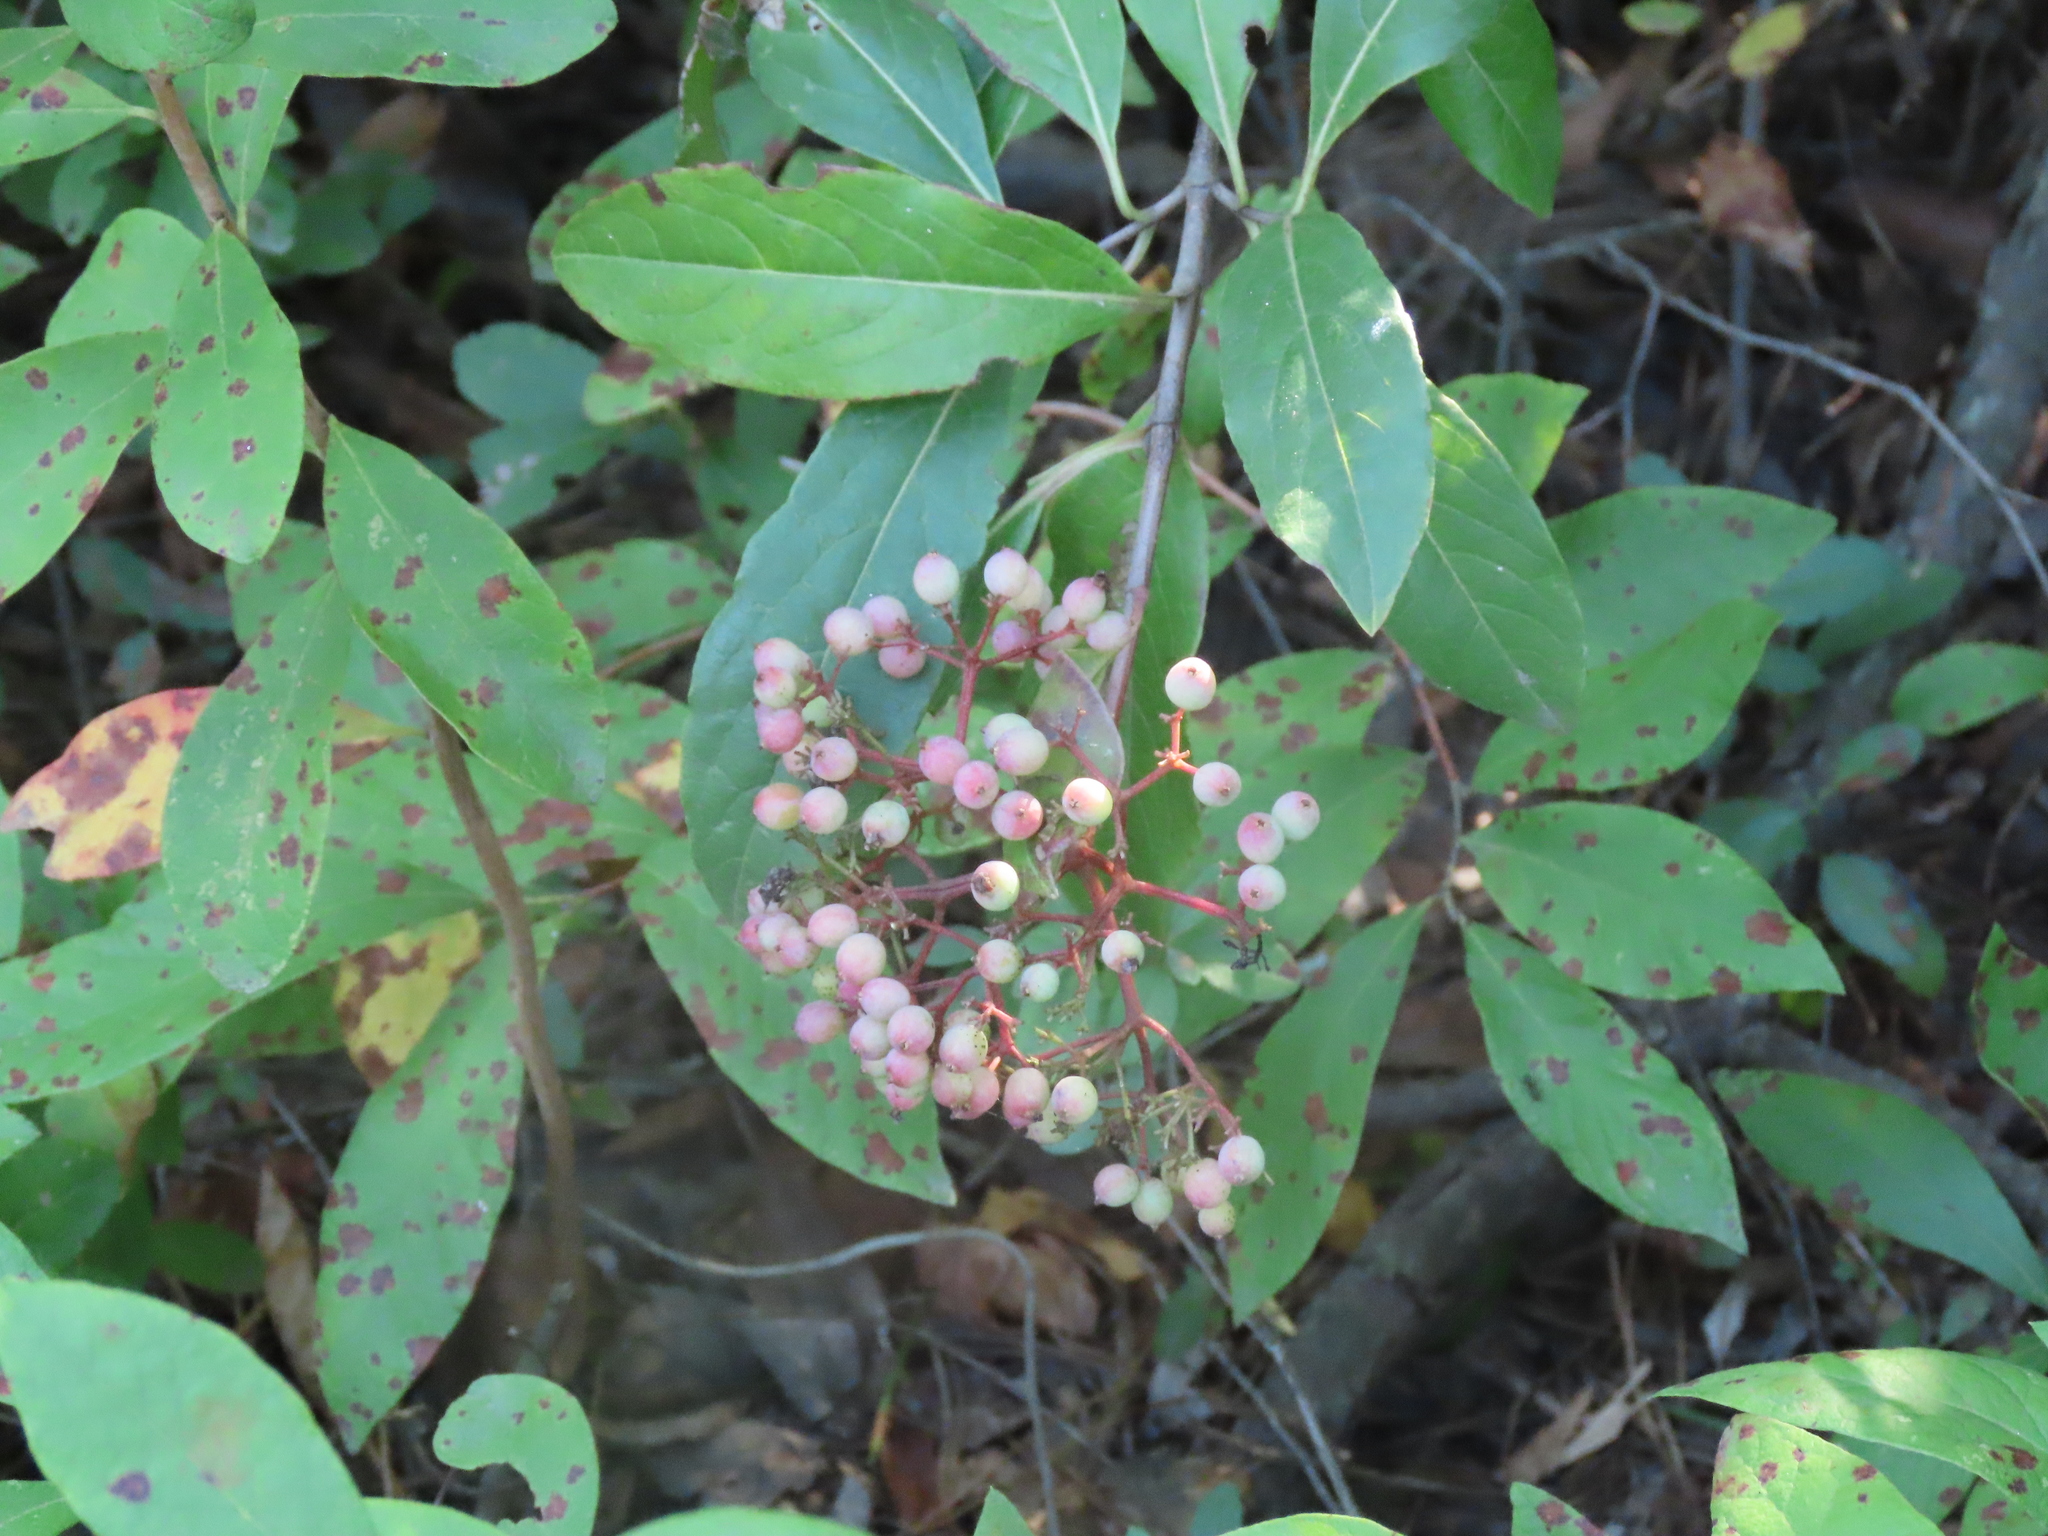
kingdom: Plantae
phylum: Tracheophyta
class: Magnoliopsida
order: Dipsacales
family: Viburnaceae
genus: Viburnum
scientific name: Viburnum nudum
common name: Possum haw
